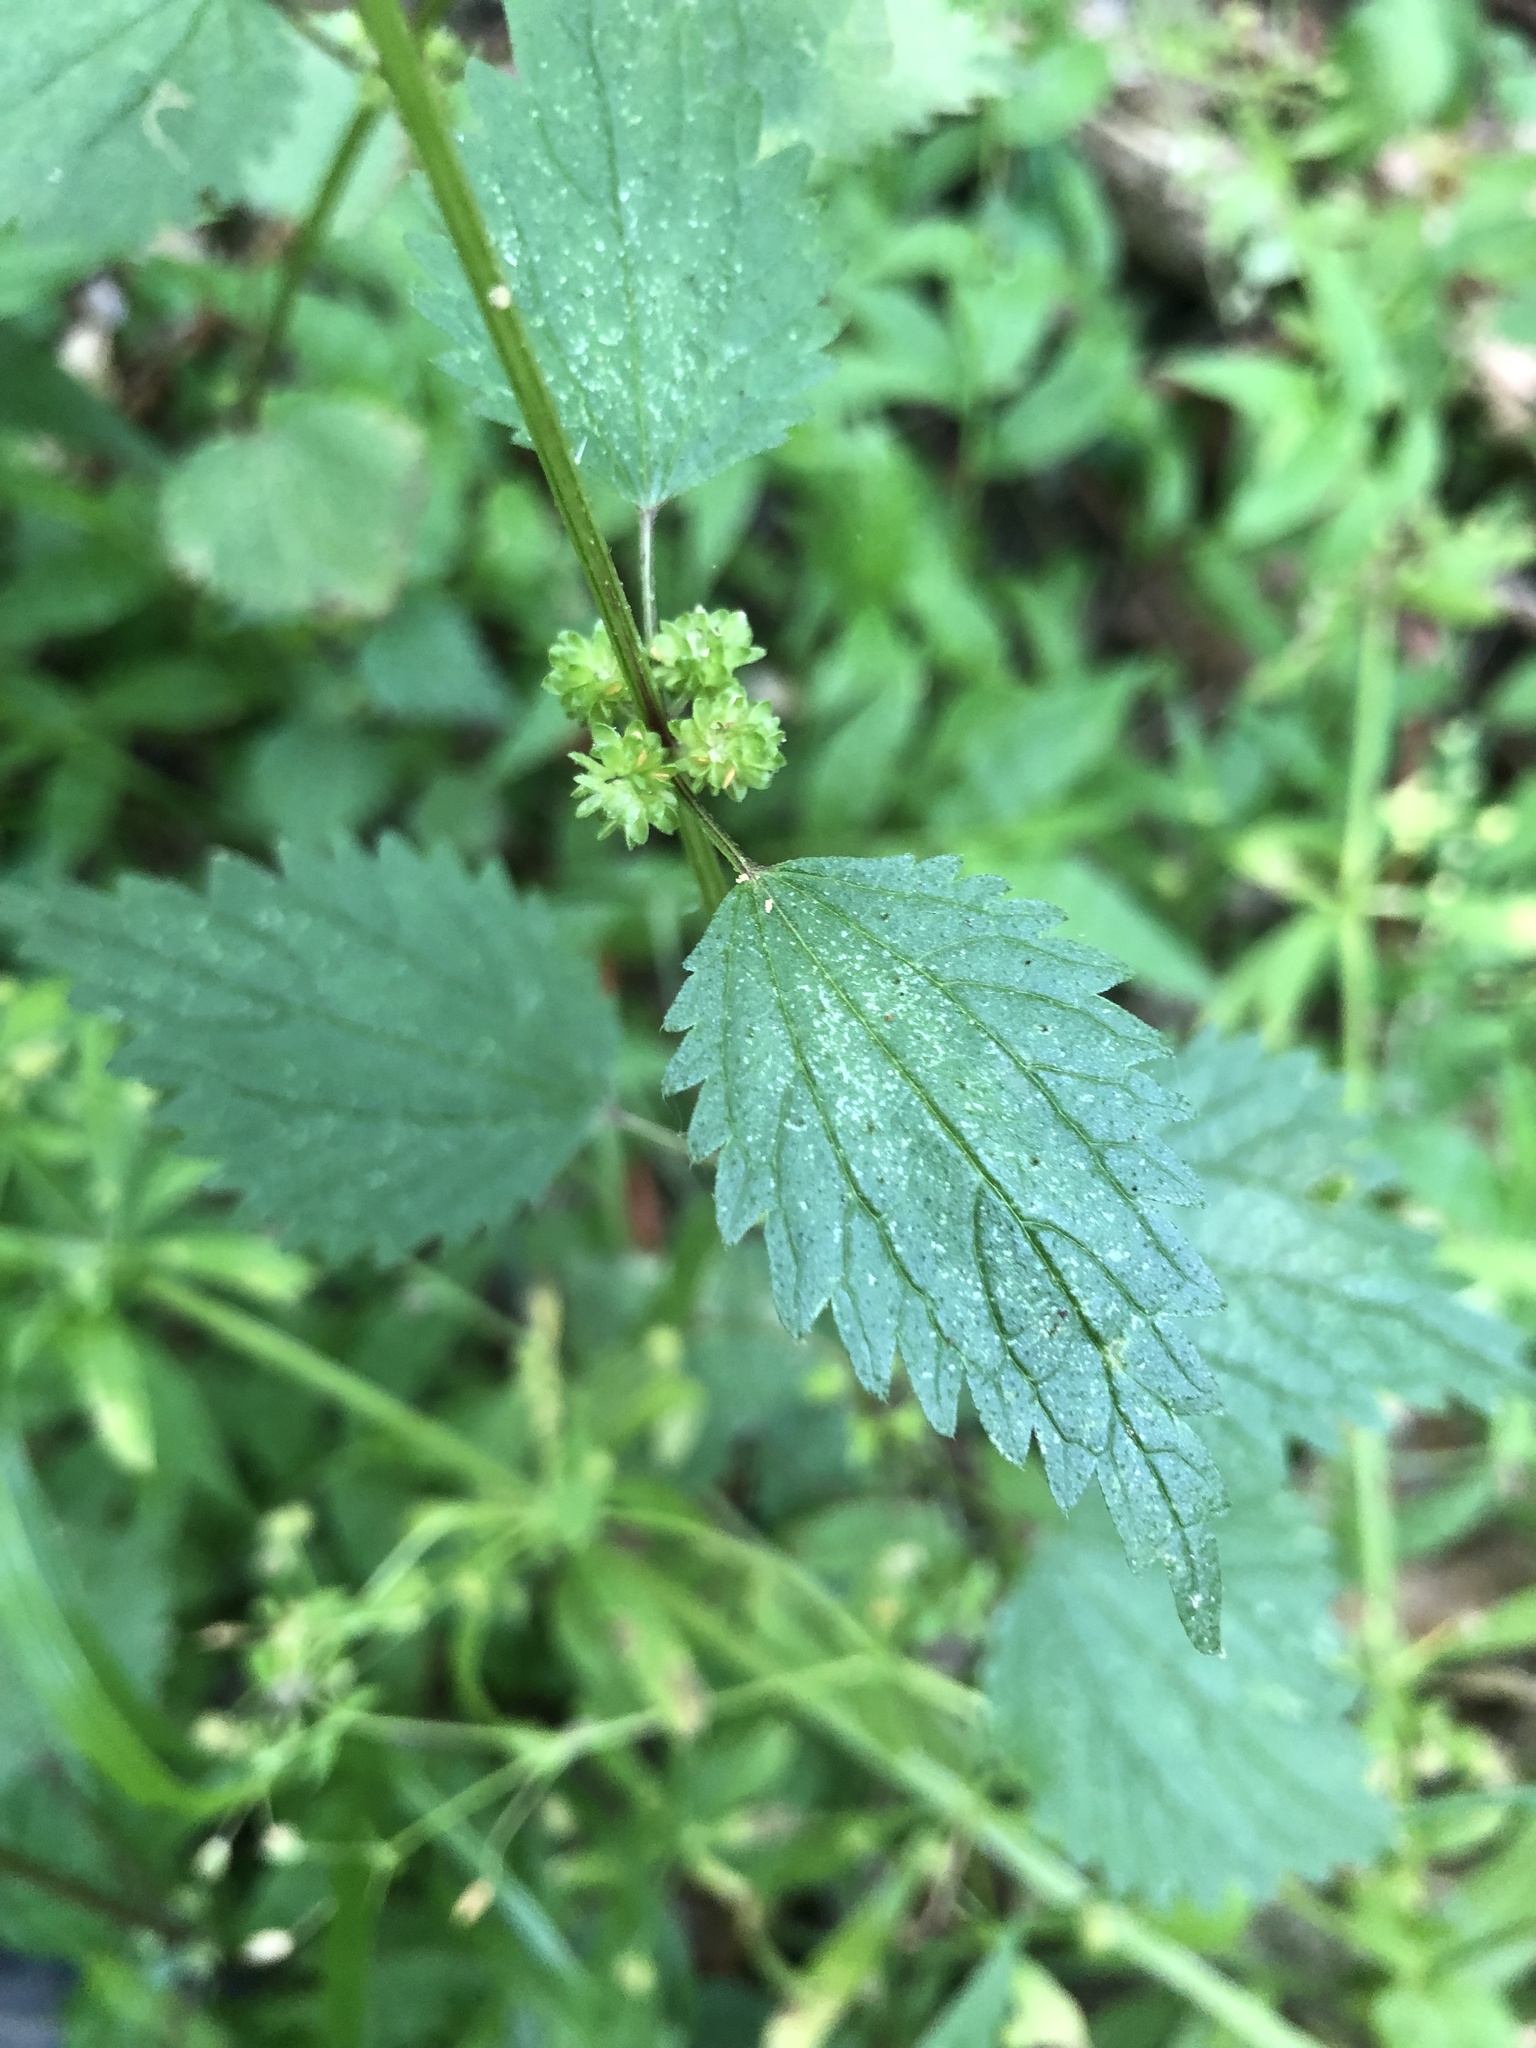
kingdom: Plantae
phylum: Tracheophyta
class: Magnoliopsida
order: Rosales
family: Urticaceae
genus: Urtica
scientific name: Urtica chamaedryoides
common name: Heart-leaf nettle
